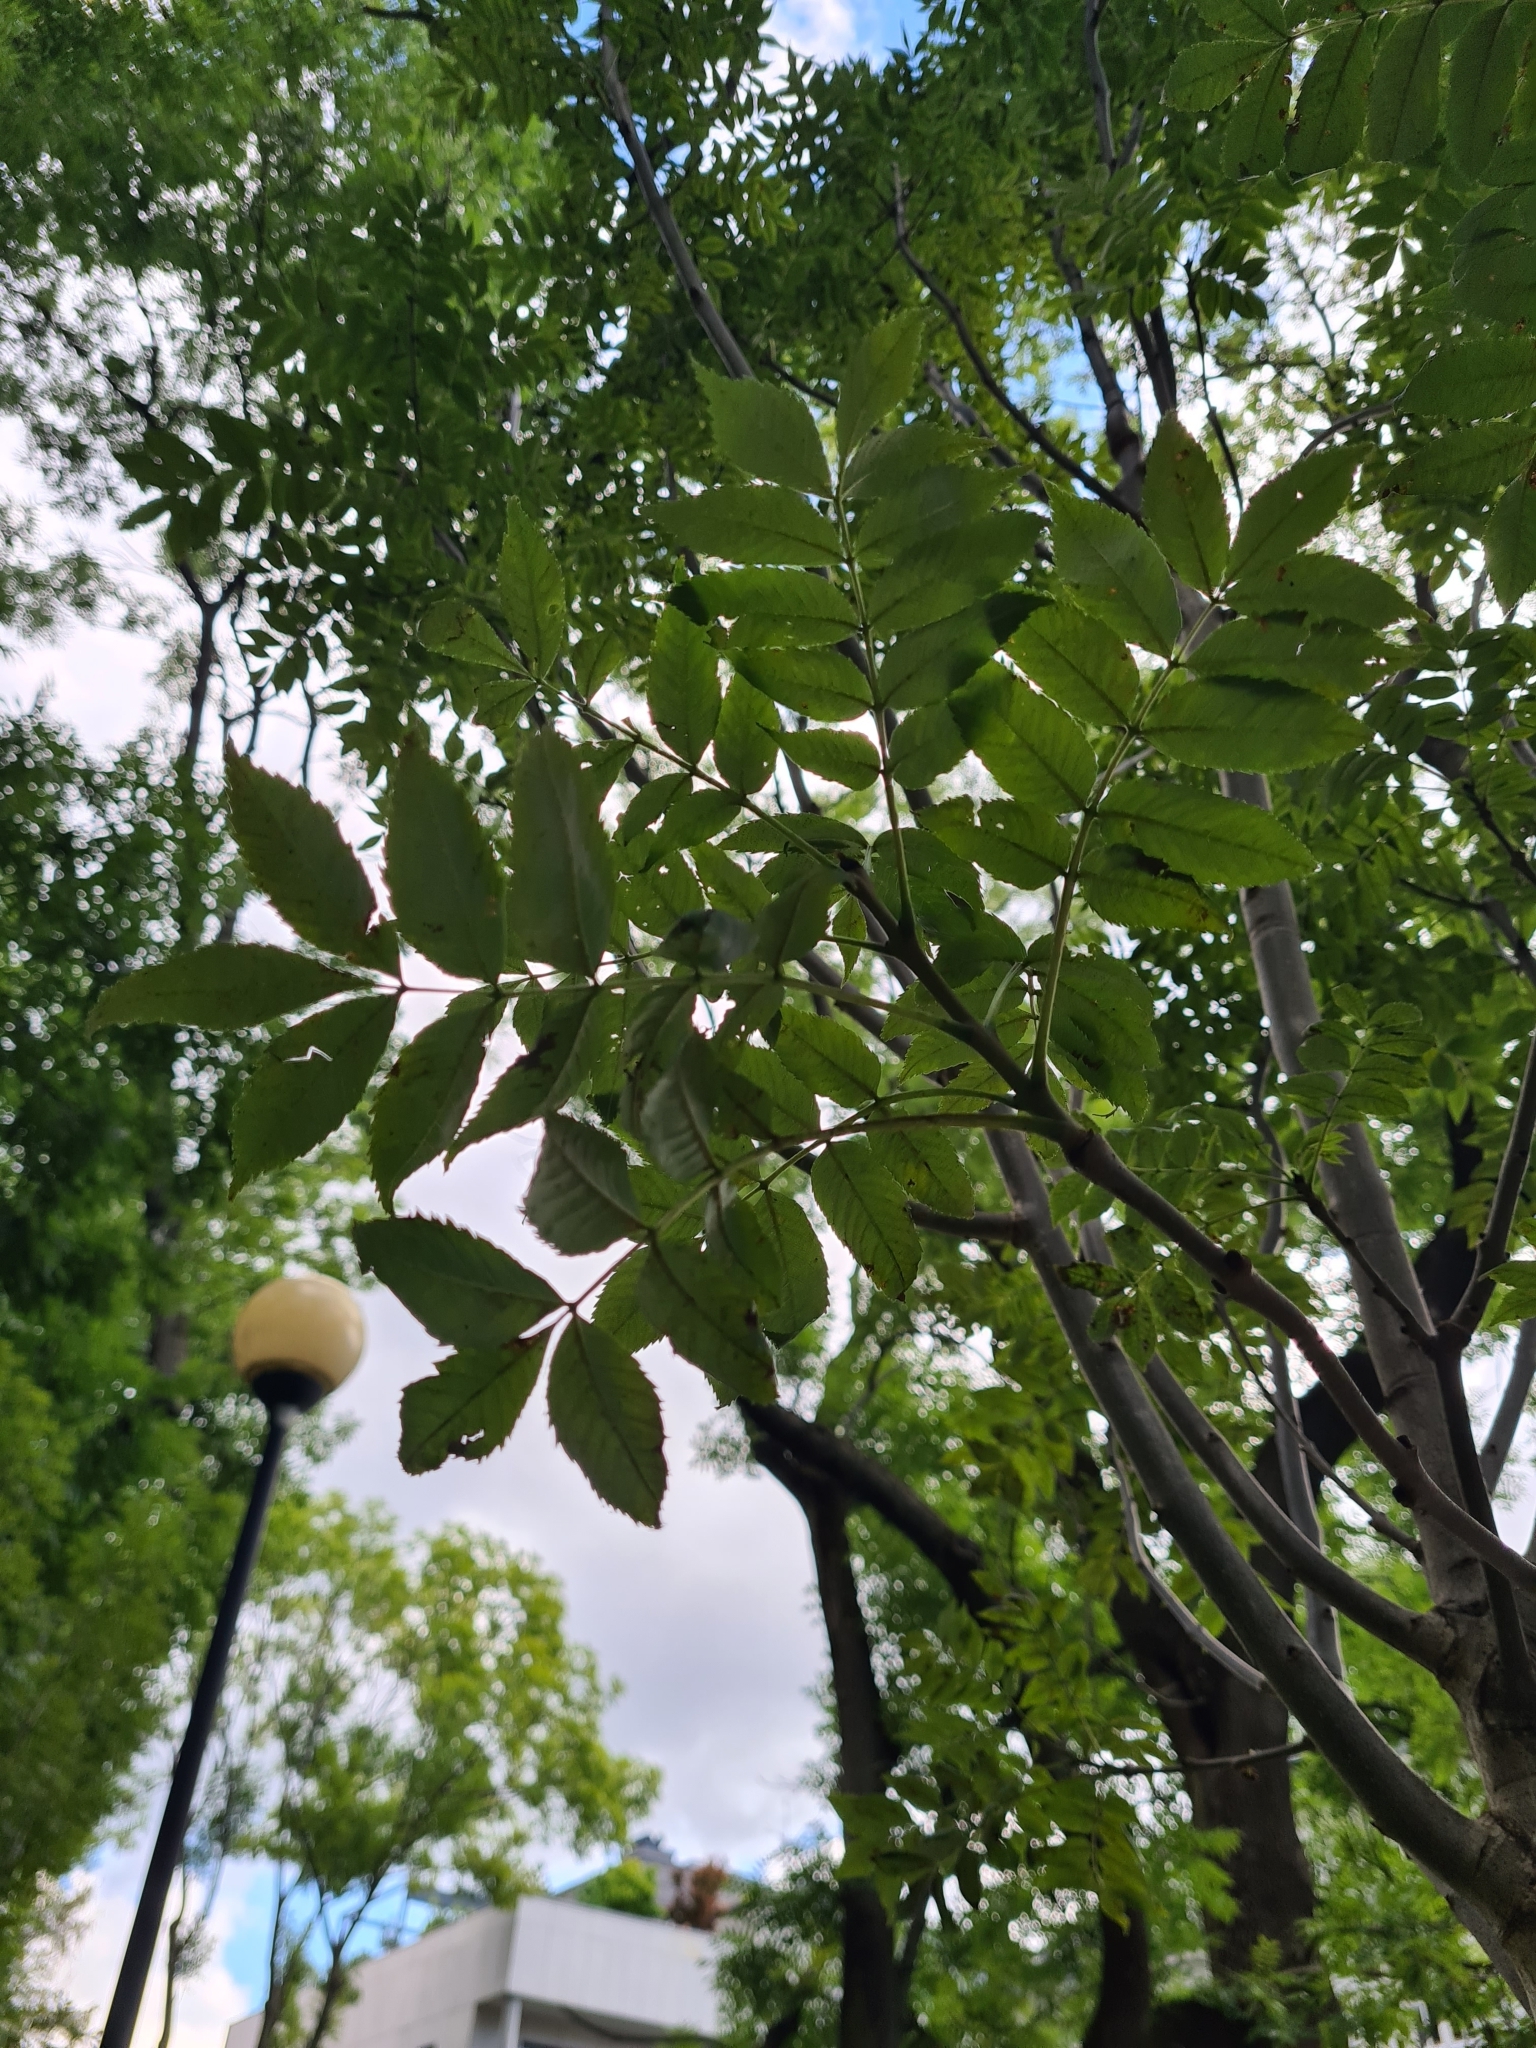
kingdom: Plantae
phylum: Tracheophyta
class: Magnoliopsida
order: Lamiales
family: Oleaceae
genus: Fraxinus
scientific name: Fraxinus excelsior
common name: European ash
